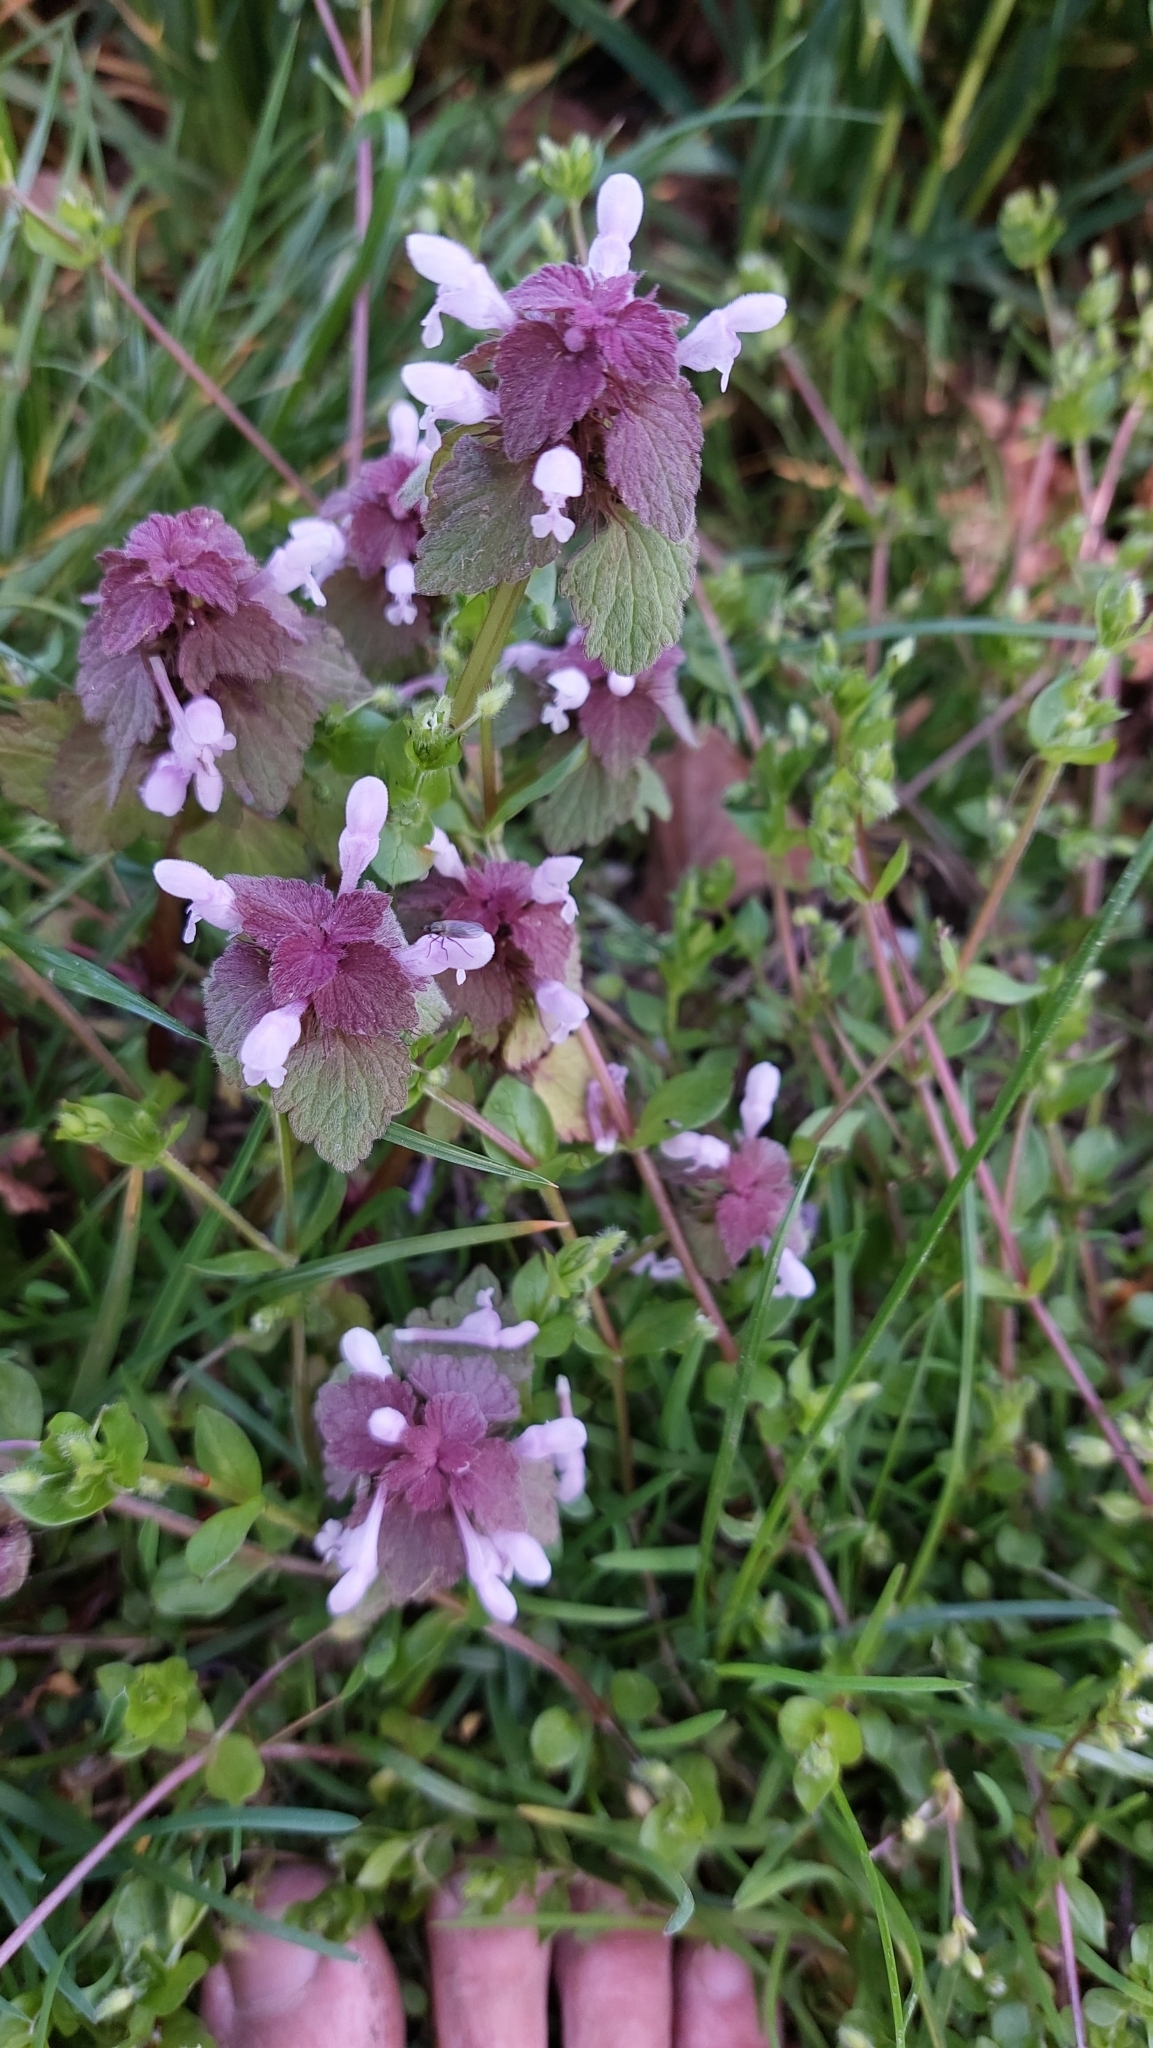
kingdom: Plantae
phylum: Tracheophyta
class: Magnoliopsida
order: Lamiales
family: Lamiaceae
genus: Lamium
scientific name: Lamium purpureum
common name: Red dead-nettle
